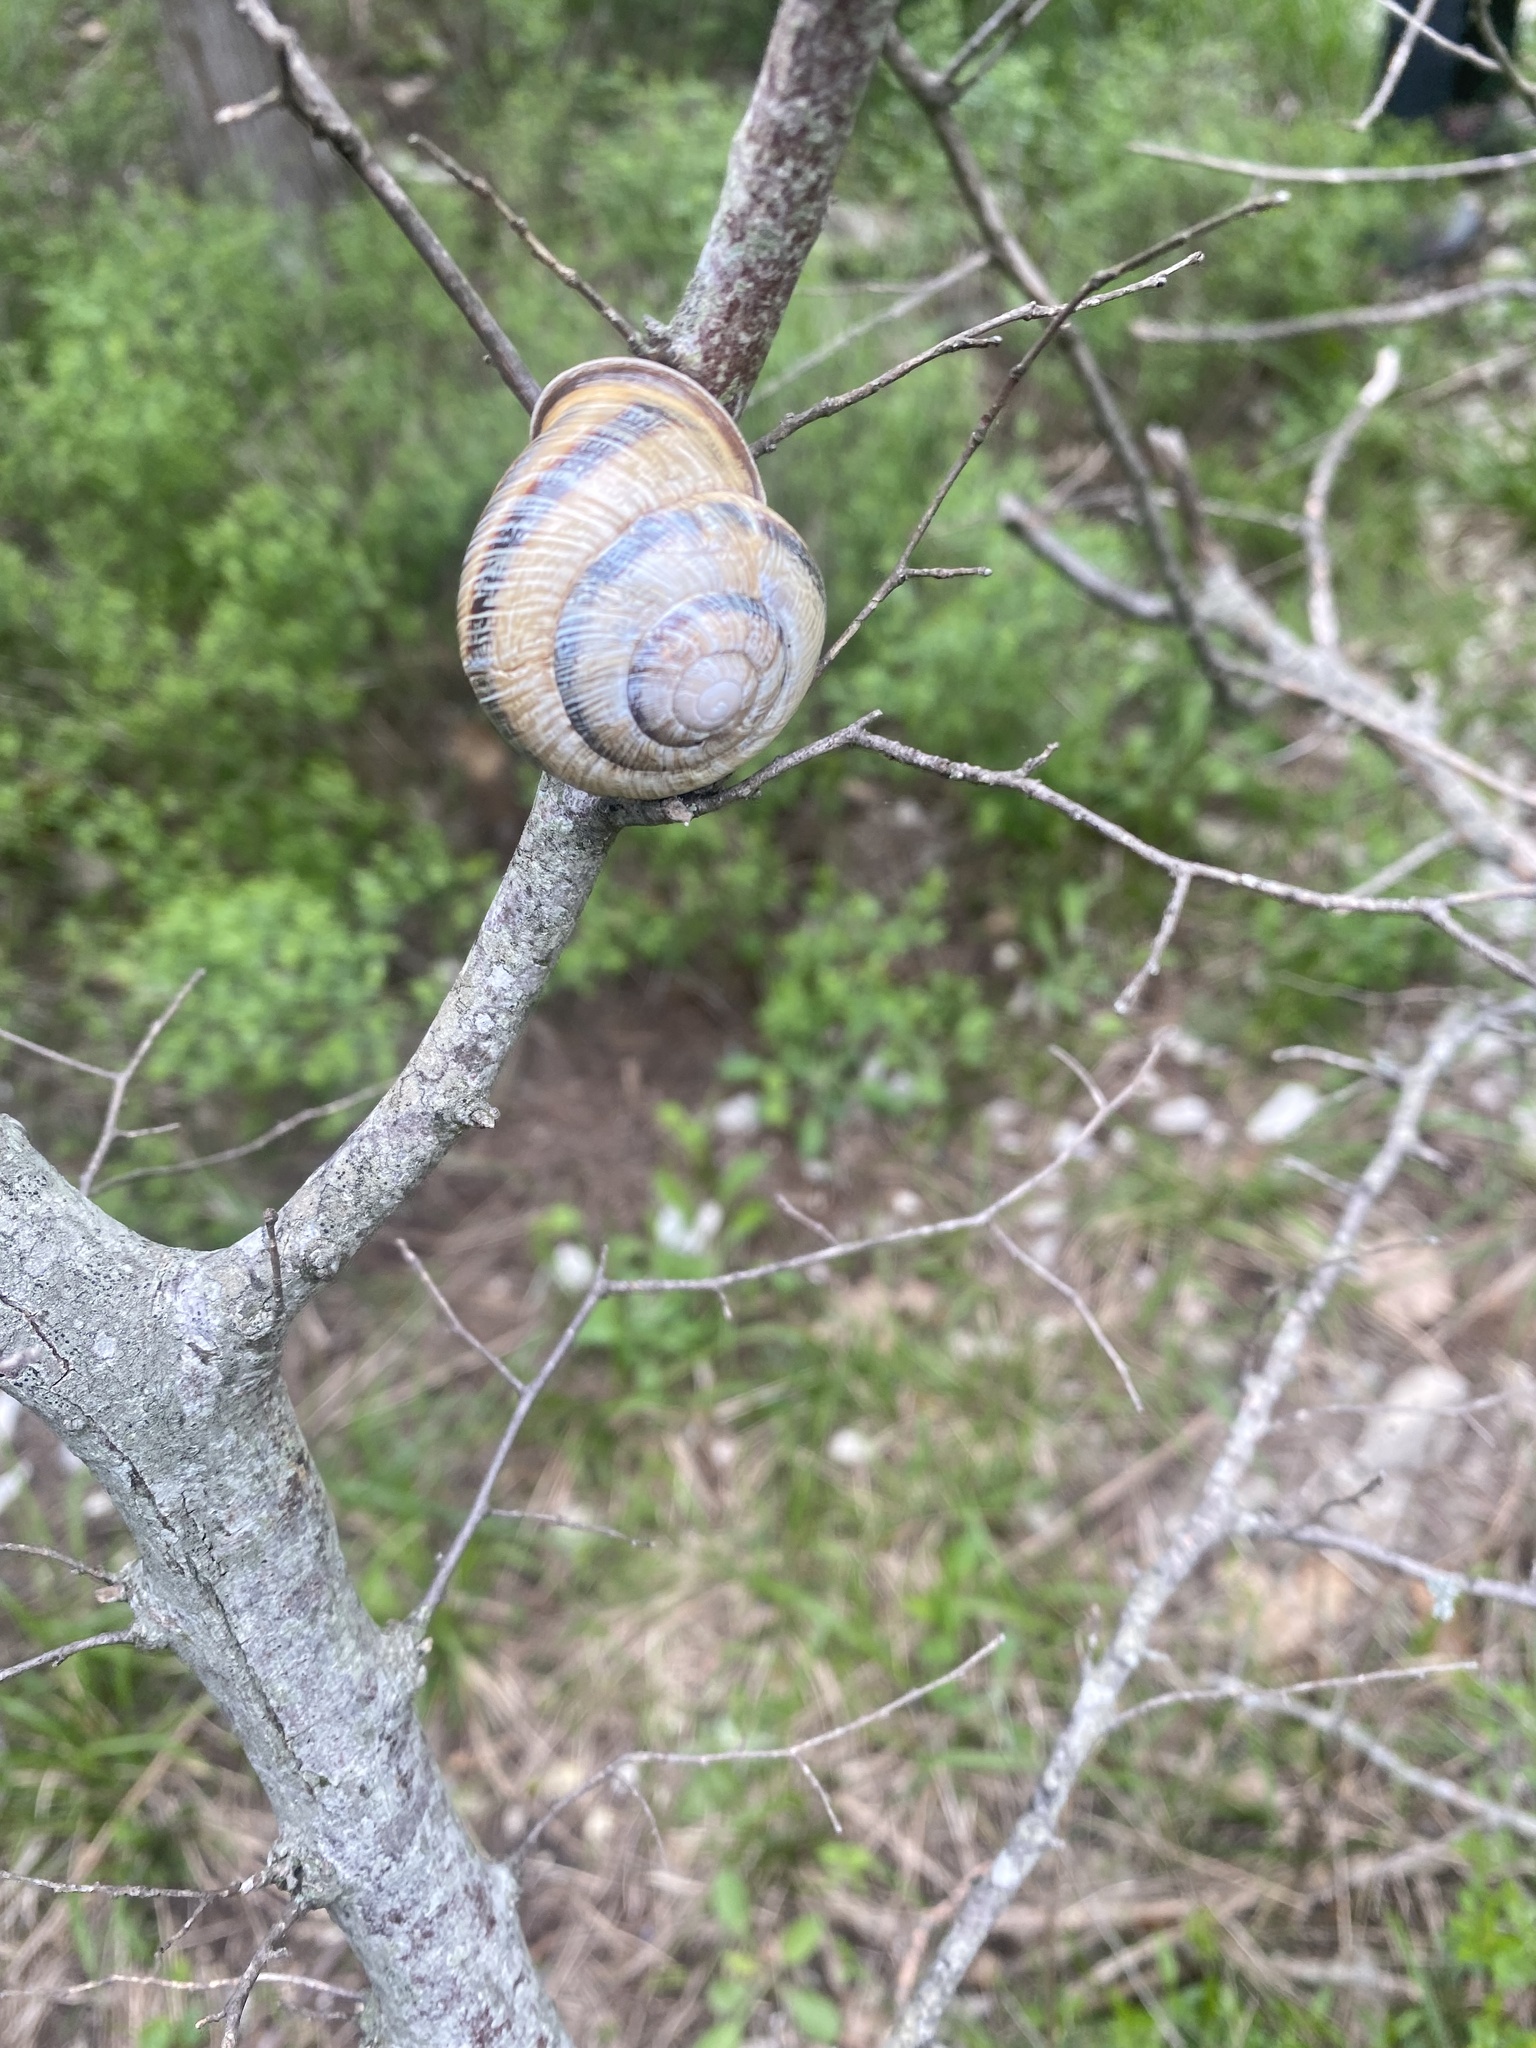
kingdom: Animalia
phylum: Mollusca
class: Gastropoda
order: Stylommatophora
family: Helicidae
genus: Caucasotachea
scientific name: Caucasotachea atrolabiata
